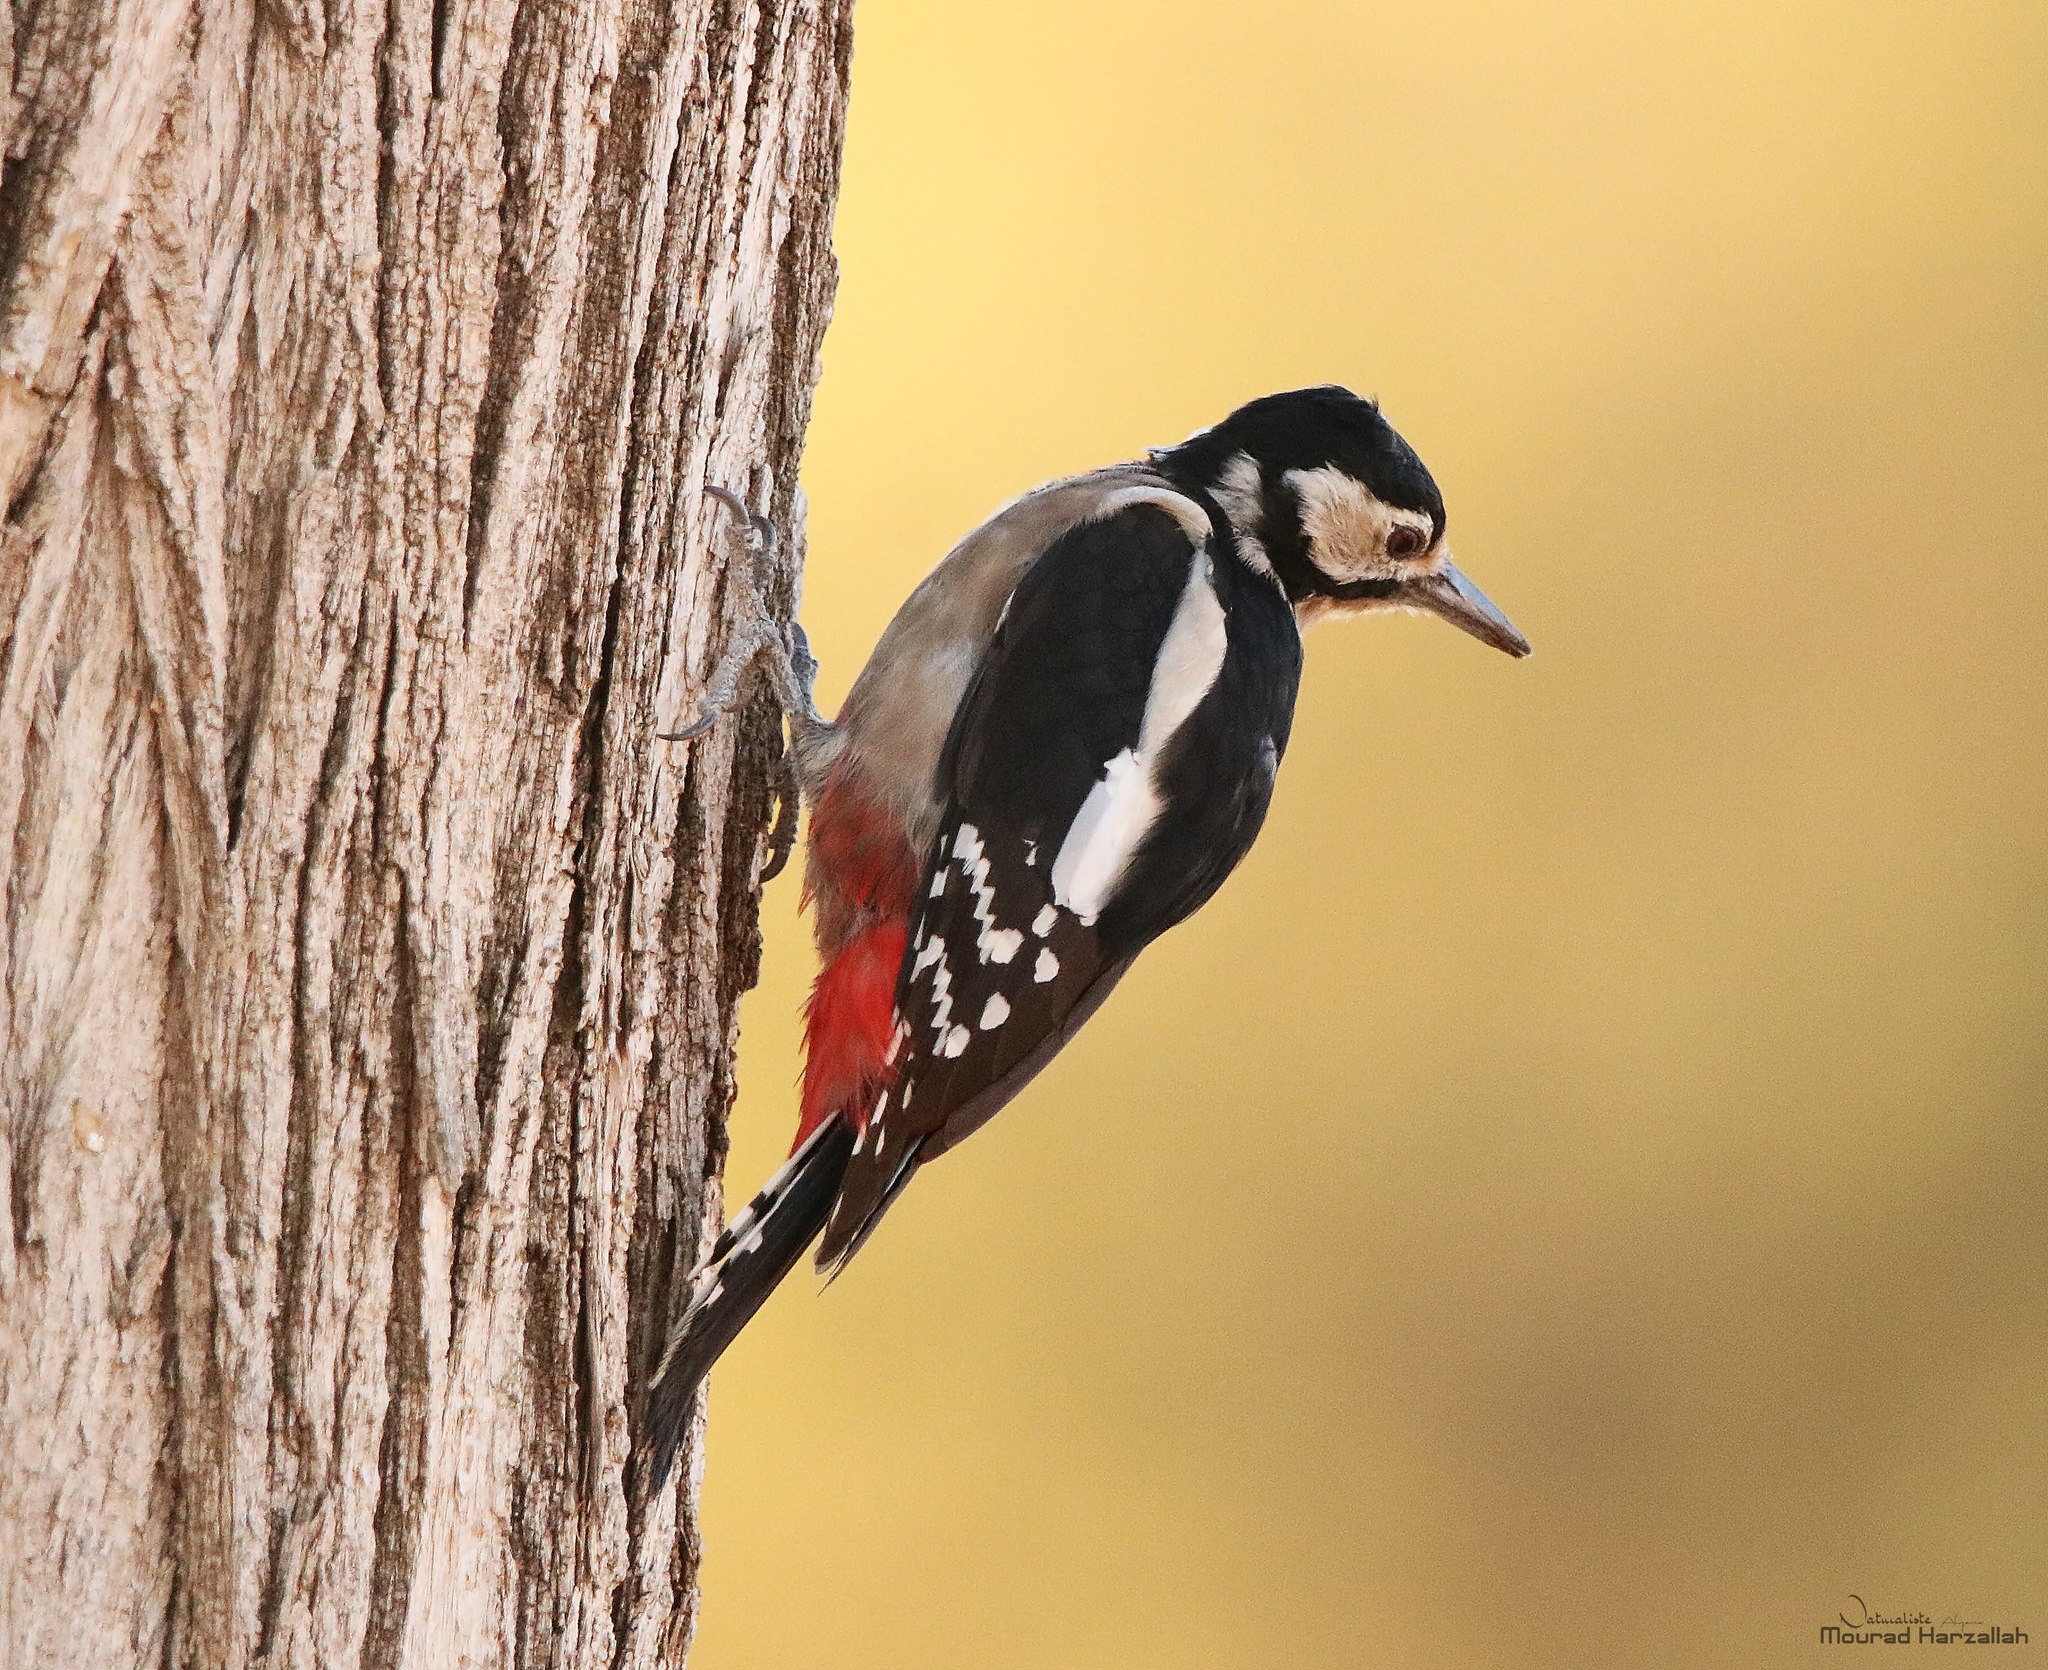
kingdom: Animalia
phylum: Chordata
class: Aves
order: Piciformes
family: Picidae
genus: Dendrocopos
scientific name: Dendrocopos major
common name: Great spotted woodpecker
